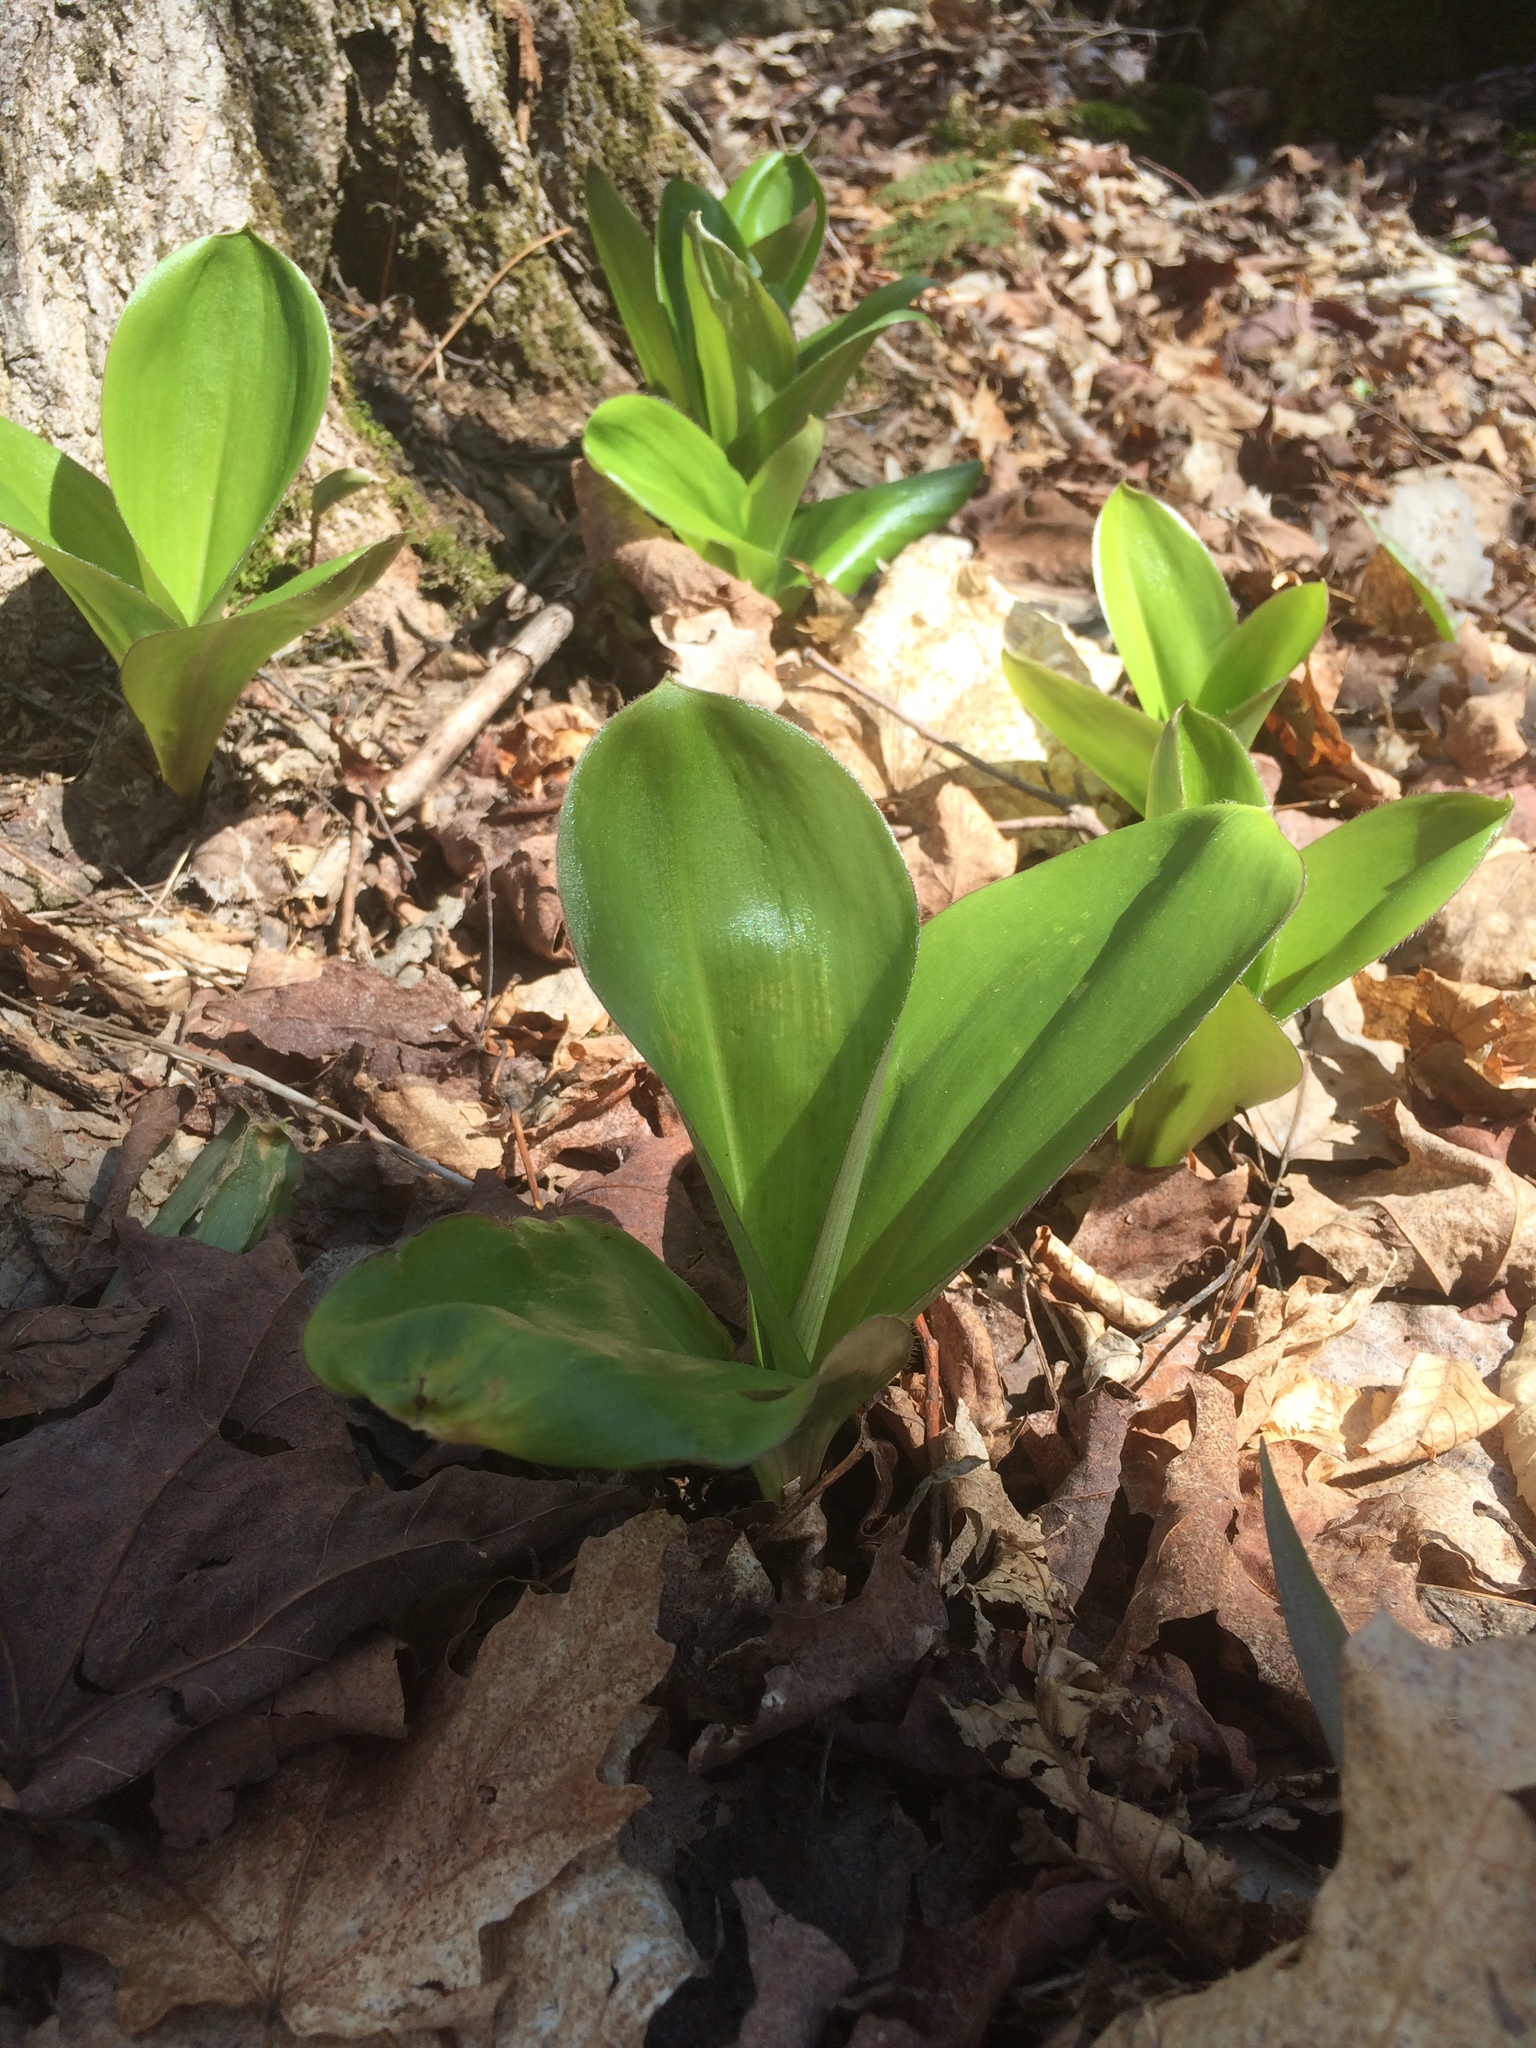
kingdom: Plantae
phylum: Tracheophyta
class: Liliopsida
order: Liliales
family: Liliaceae
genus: Clintonia
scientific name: Clintonia borealis
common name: Yellow clintonia
